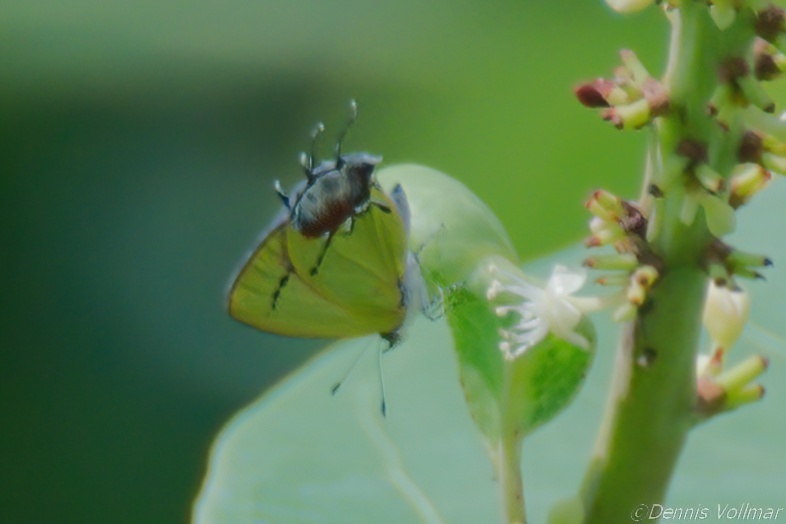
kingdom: Animalia
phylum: Arthropoda
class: Insecta
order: Lepidoptera
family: Lycaenidae
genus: Thecla
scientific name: Thecla maesites
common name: Verde azul hairstreak
